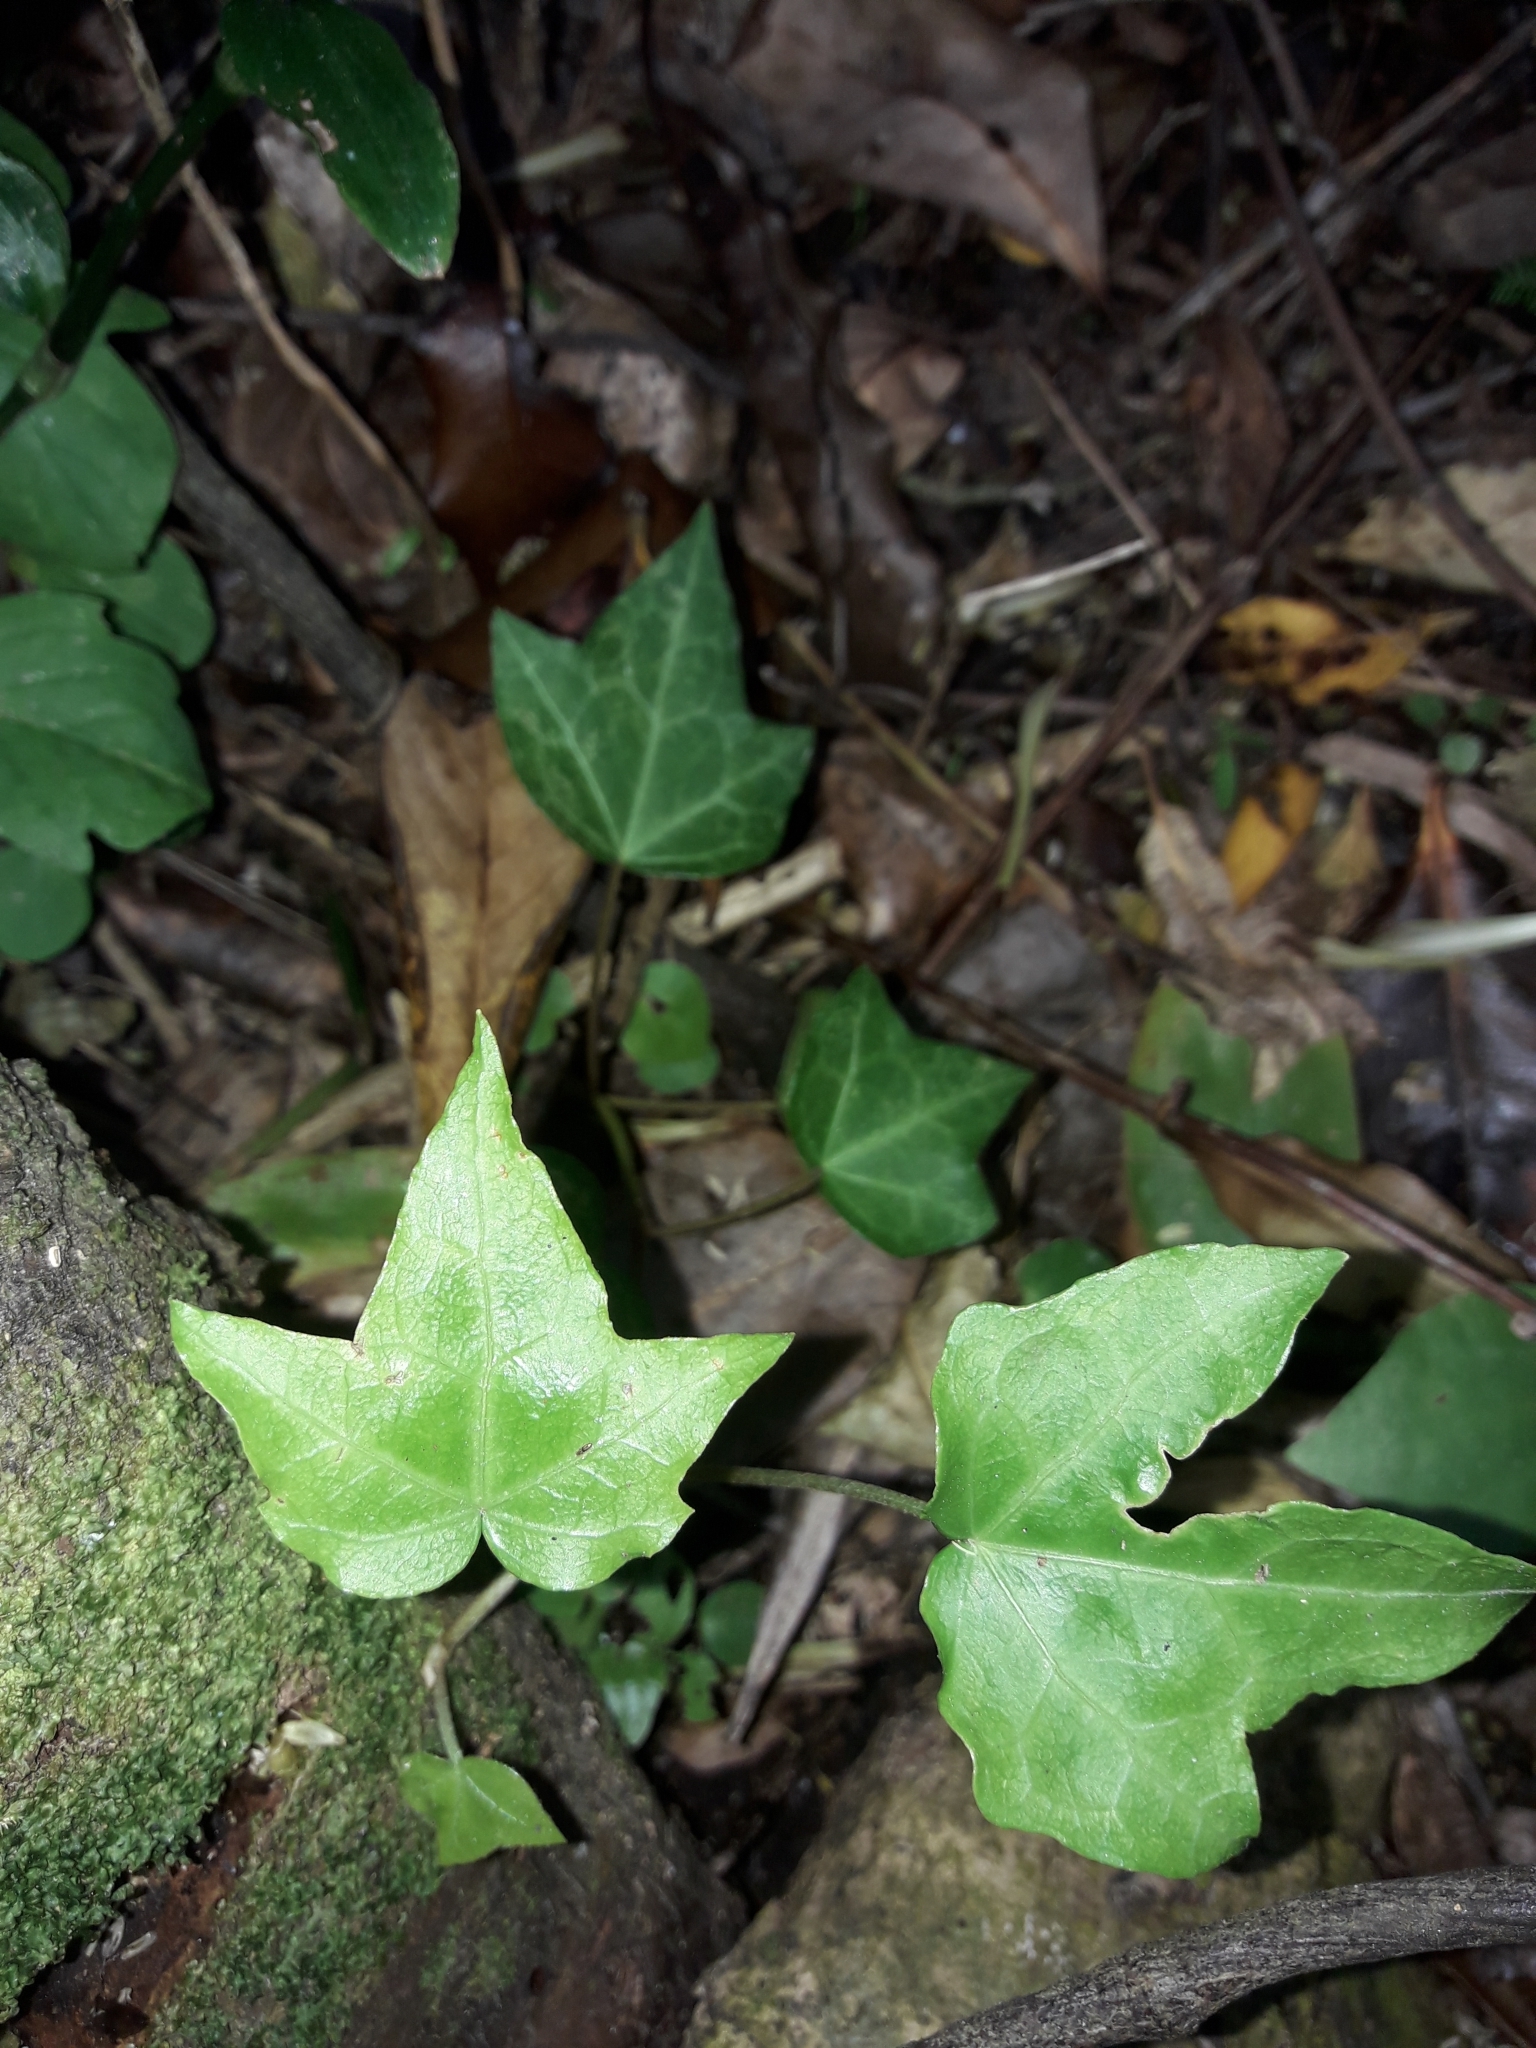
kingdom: Plantae
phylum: Tracheophyta
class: Magnoliopsida
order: Apiales
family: Araliaceae
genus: Hedera
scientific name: Hedera helix
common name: Ivy
